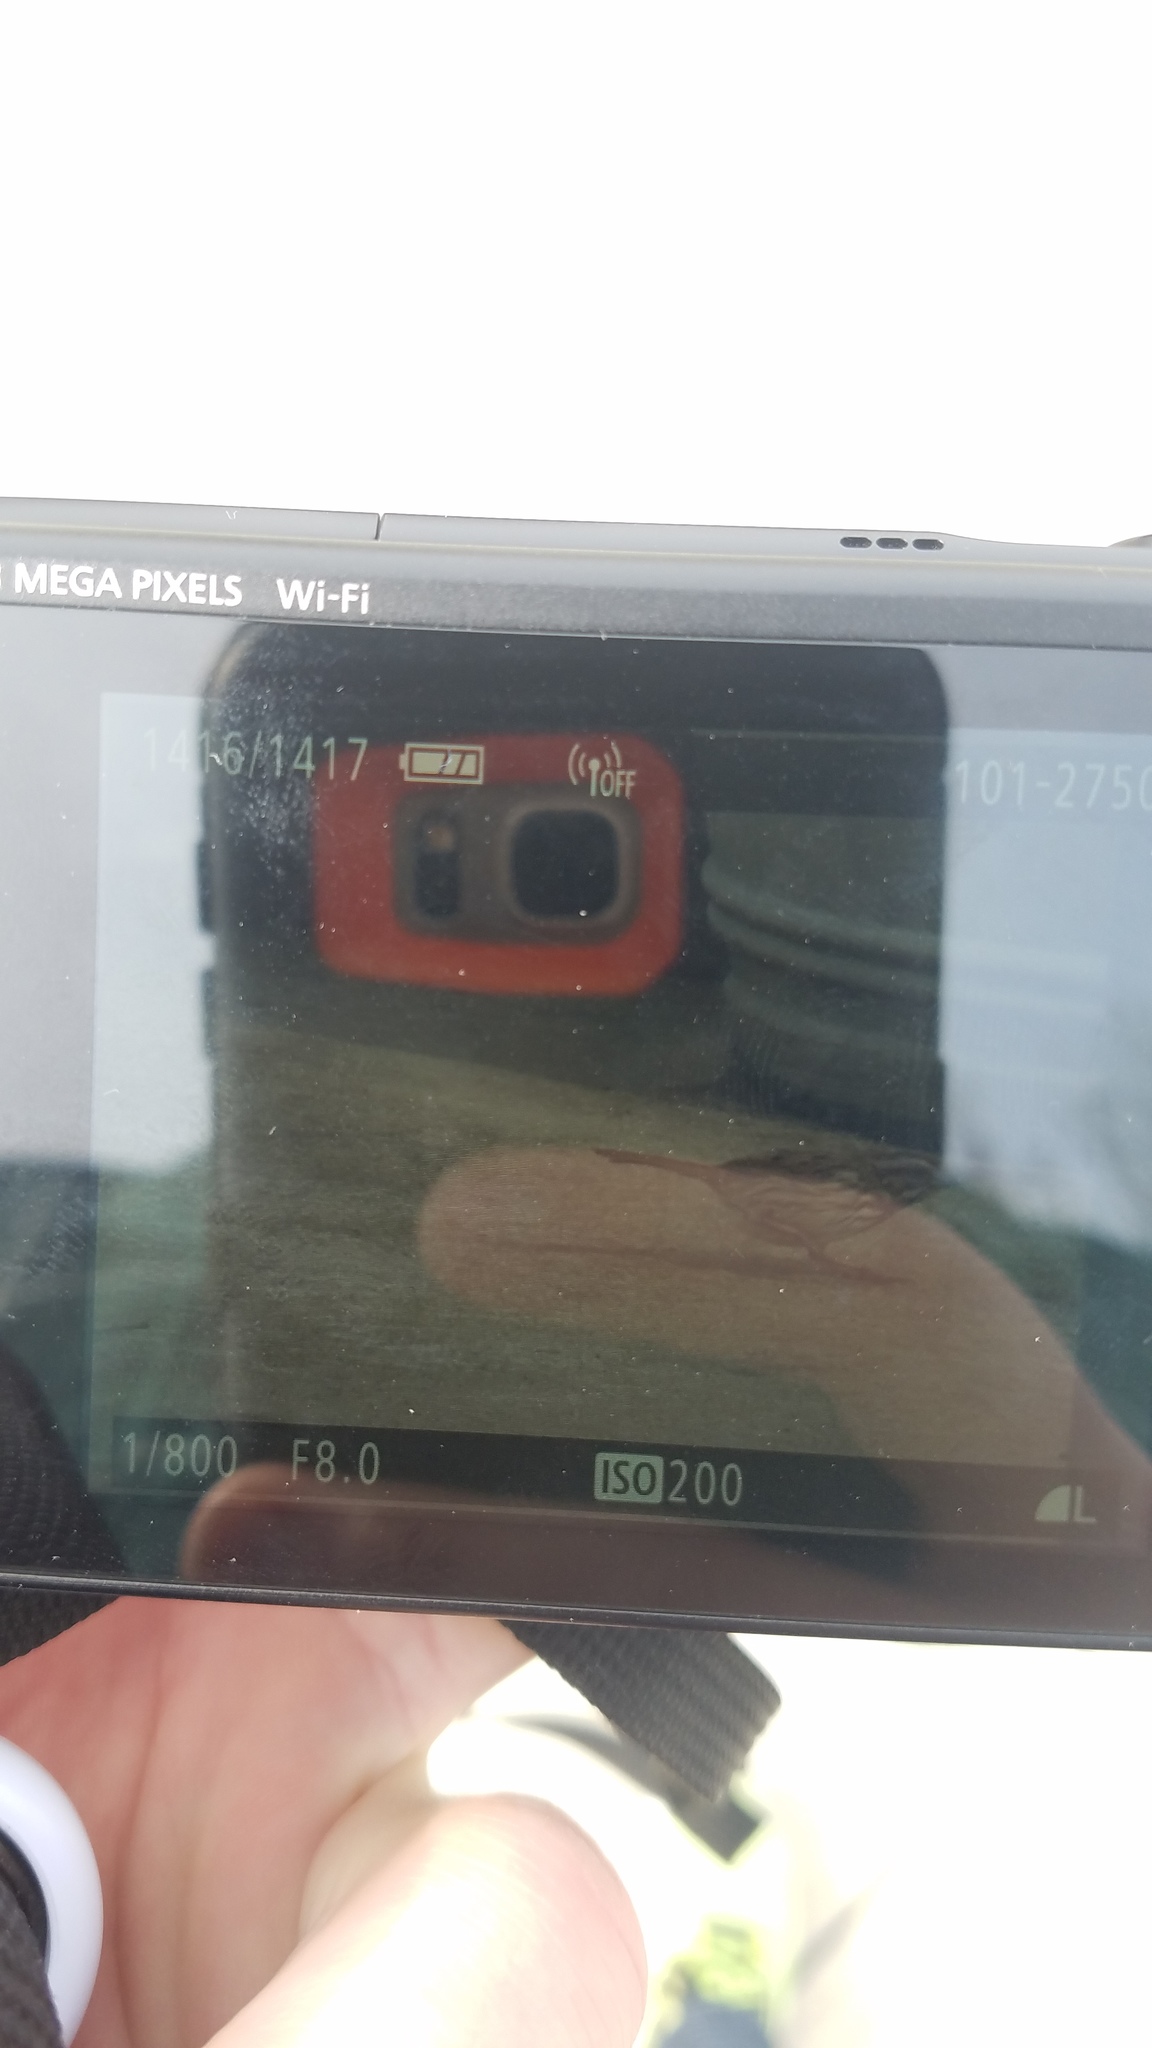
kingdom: Animalia
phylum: Chordata
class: Aves
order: Passeriformes
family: Passerellidae
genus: Melospiza
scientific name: Melospiza melodia
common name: Song sparrow
